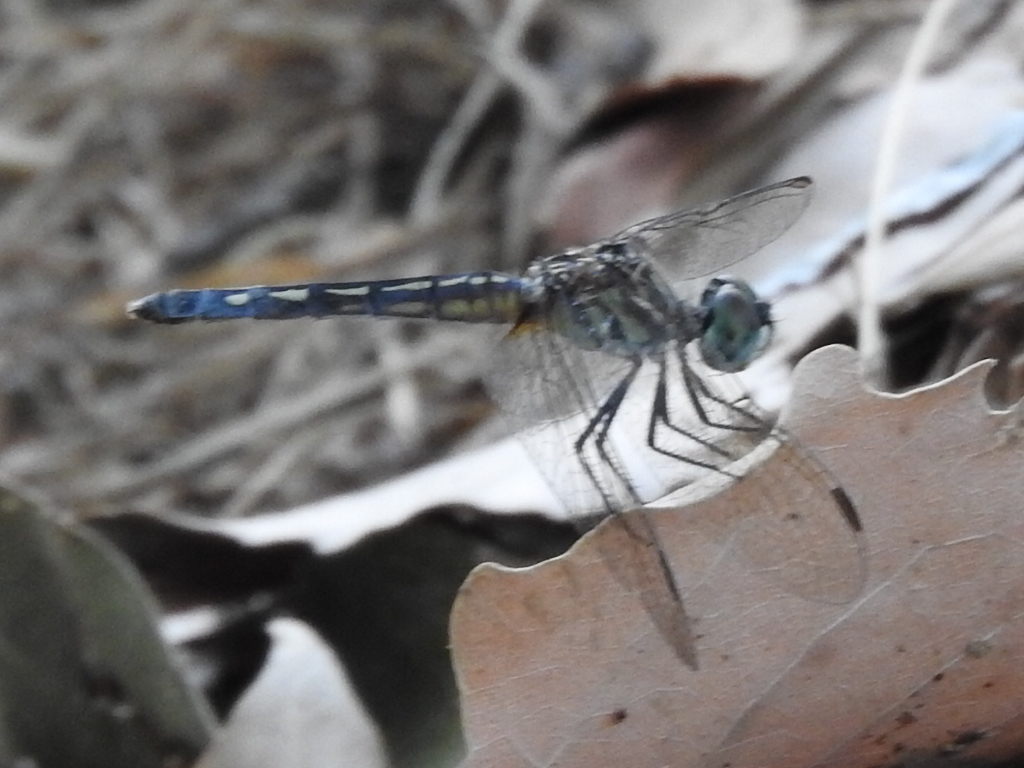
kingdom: Animalia
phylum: Arthropoda
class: Insecta
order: Odonata
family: Libellulidae
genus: Pachydiplax
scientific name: Pachydiplax longipennis
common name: Blue dasher
